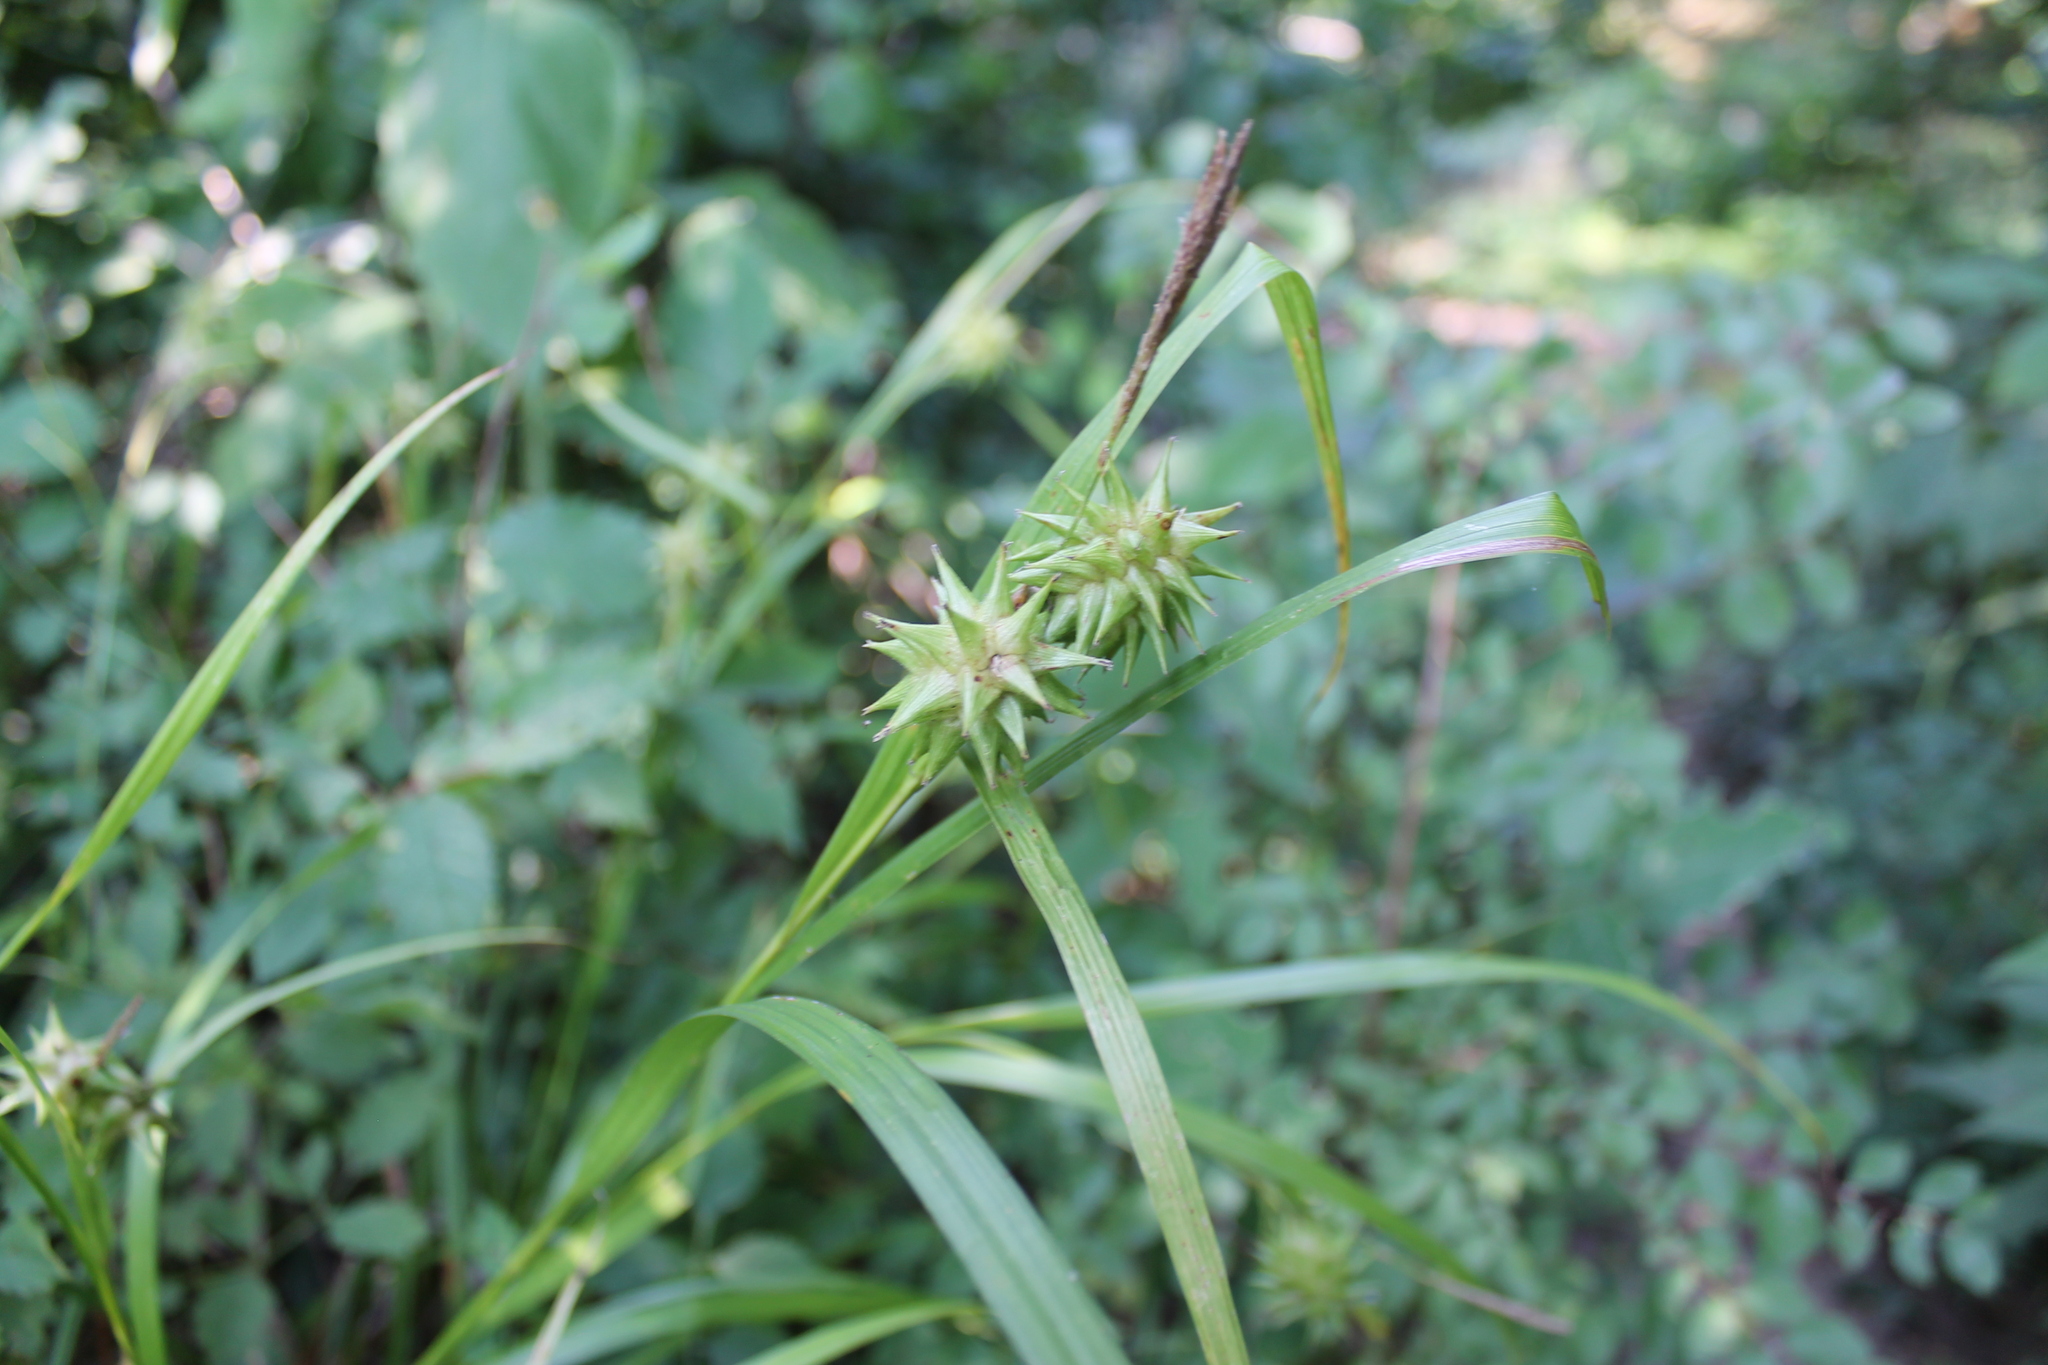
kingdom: Plantae
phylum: Tracheophyta
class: Liliopsida
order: Poales
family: Cyperaceae
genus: Carex
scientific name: Carex grayi
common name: Asa gray's sedge
